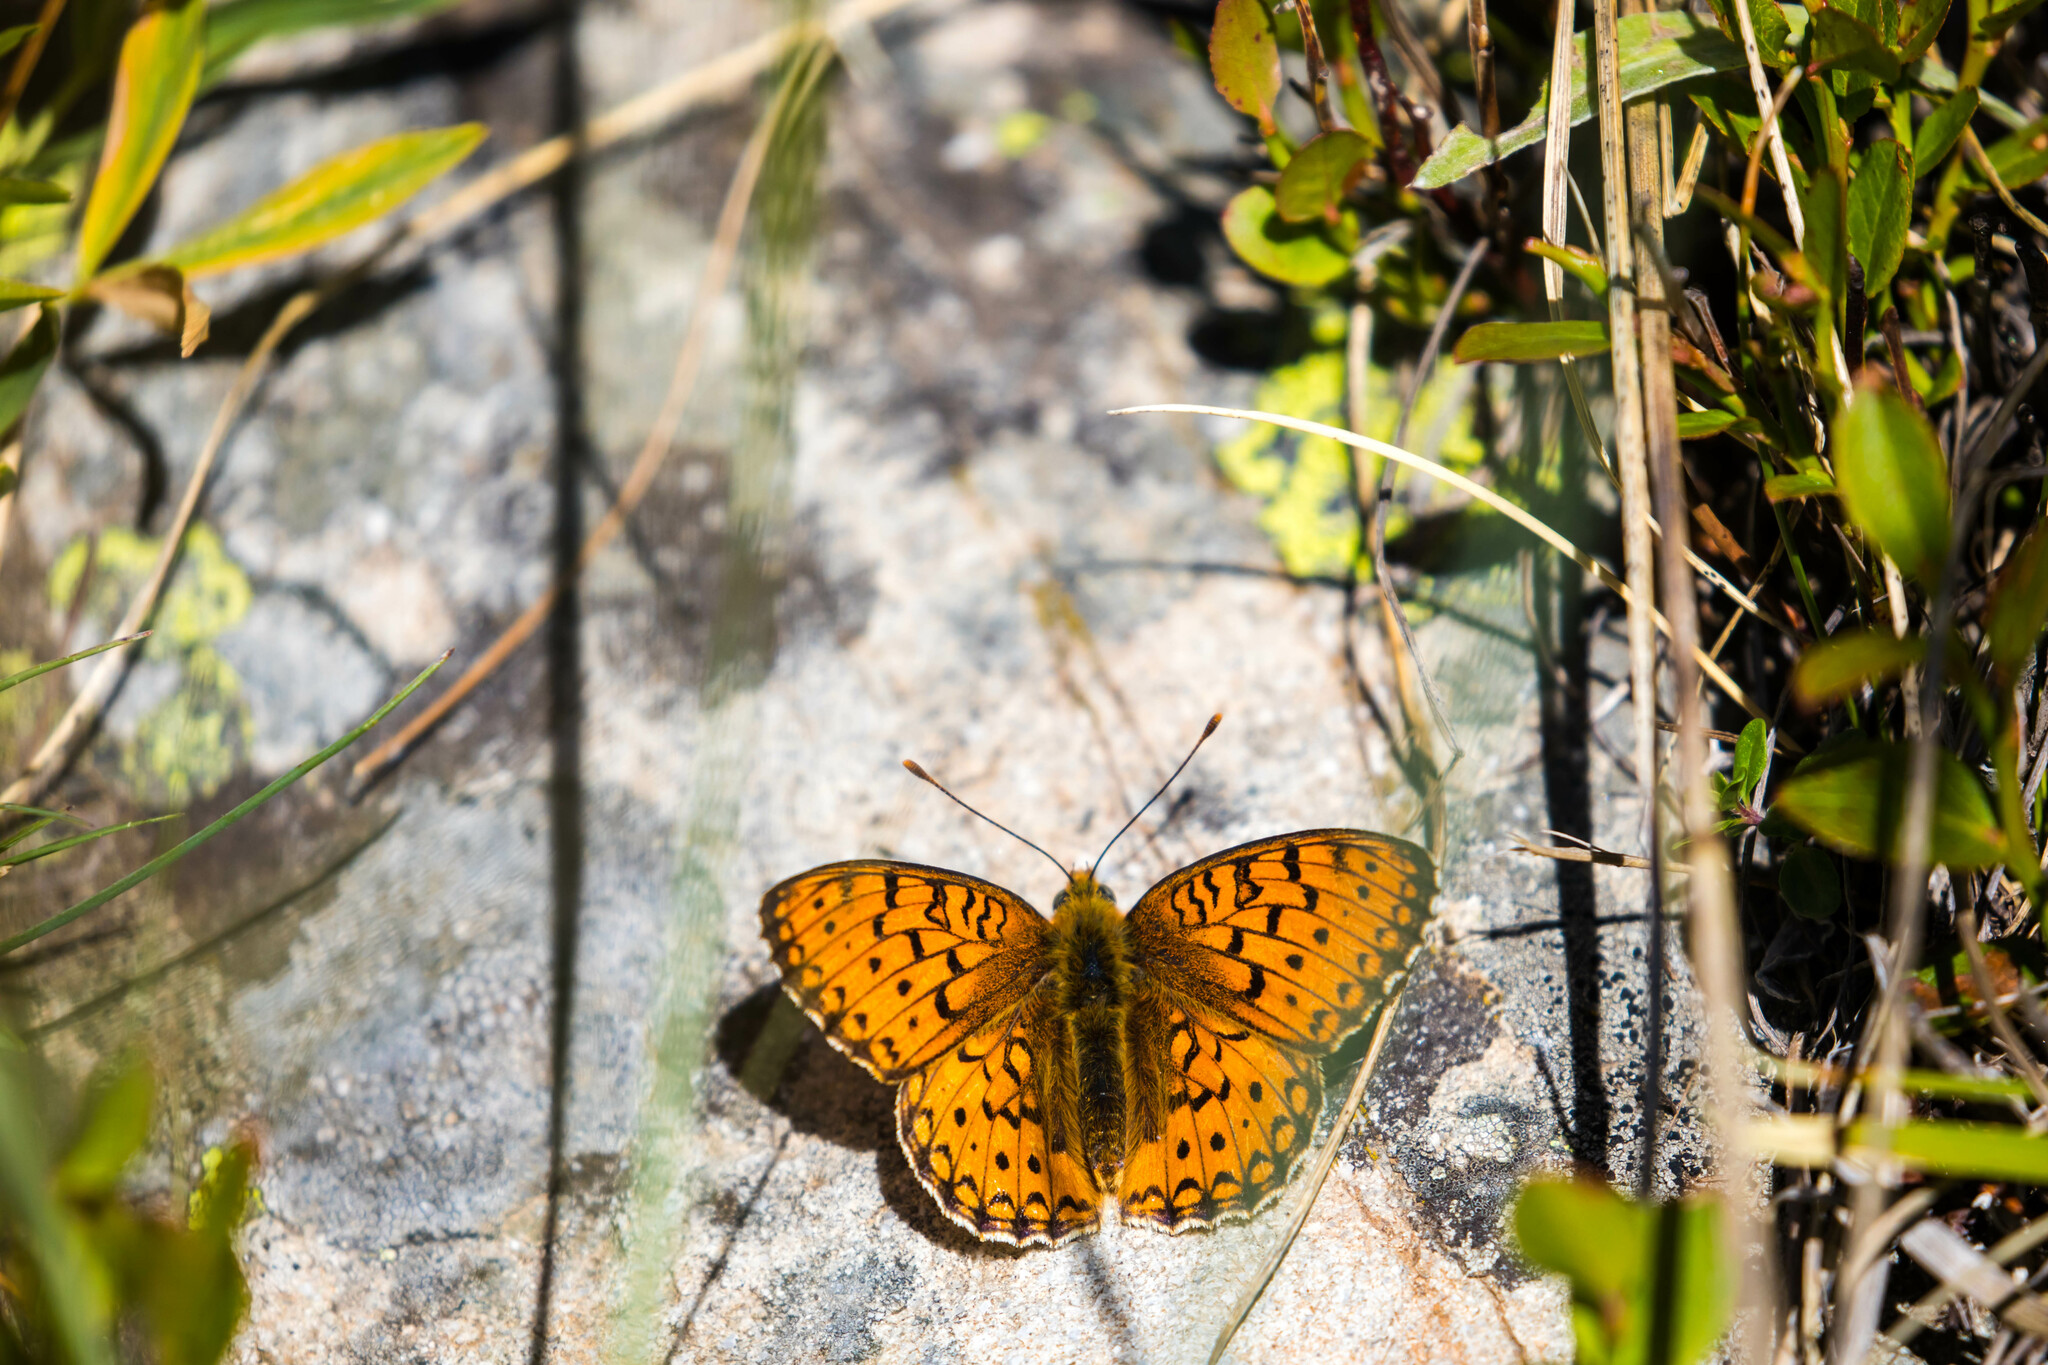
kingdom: Animalia
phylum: Arthropoda
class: Insecta
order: Lepidoptera
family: Nymphalidae
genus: Fabriciana
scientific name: Fabriciana niobe
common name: Niobe fritillary
